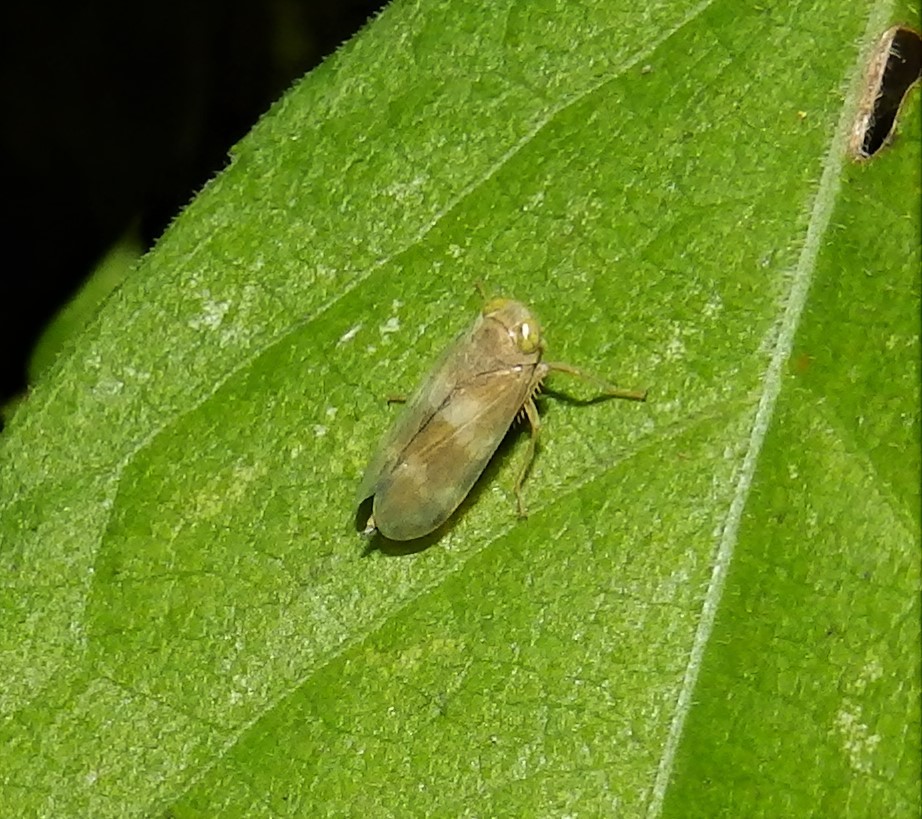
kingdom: Animalia
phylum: Arthropoda
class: Insecta
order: Hemiptera
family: Cicadellidae
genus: Jikradia
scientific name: Jikradia olitoria
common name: Coppery leafhopper
